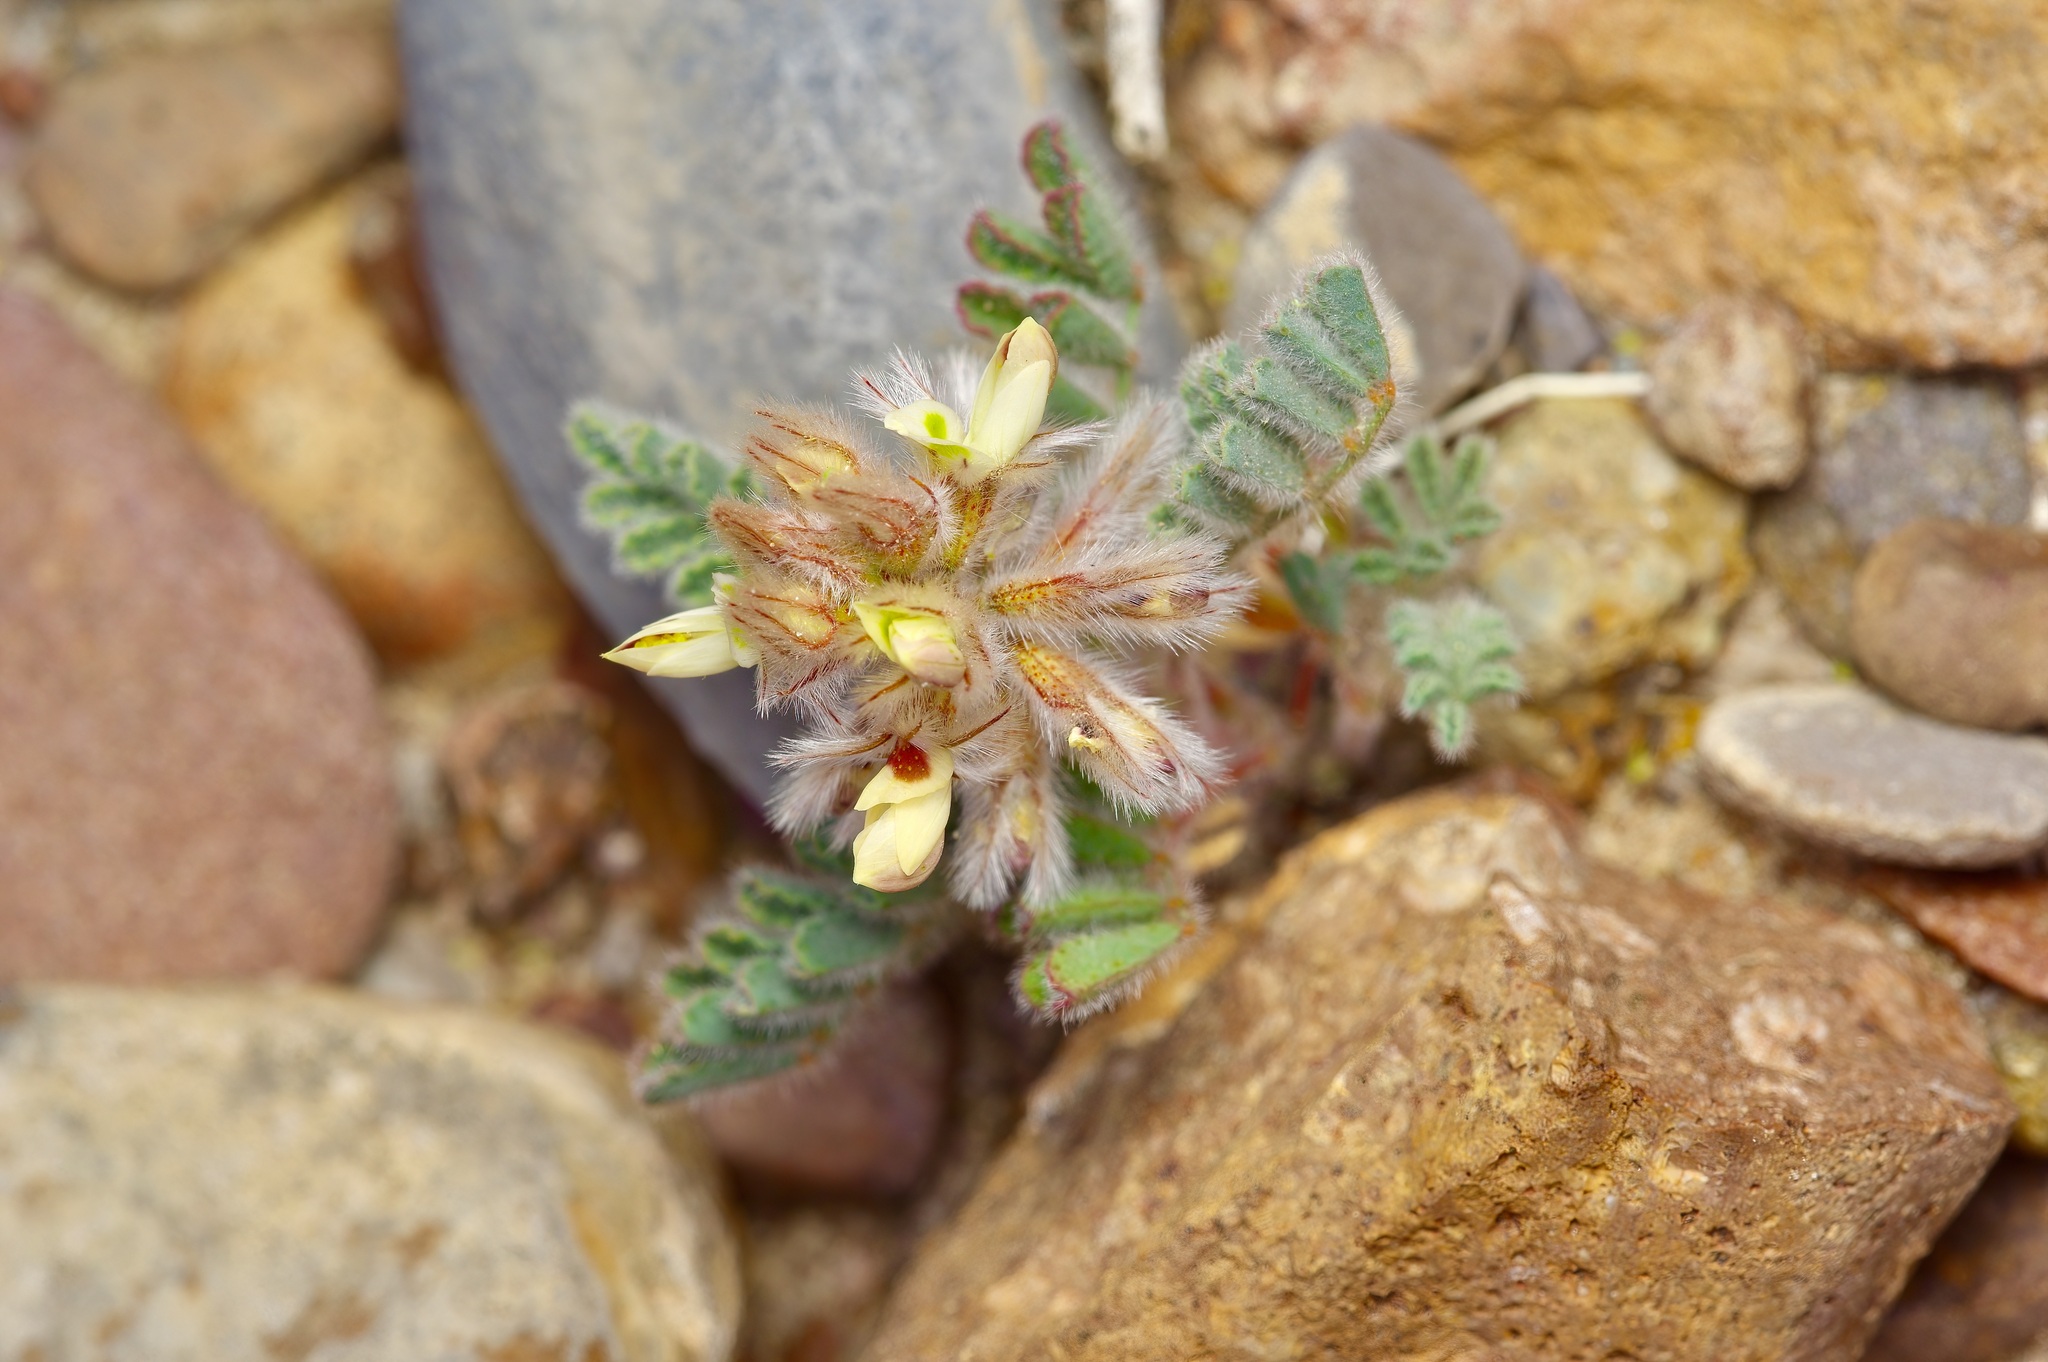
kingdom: Plantae
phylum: Tracheophyta
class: Magnoliopsida
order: Fabales
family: Fabaceae
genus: Dalea
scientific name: Dalea neomexicana
